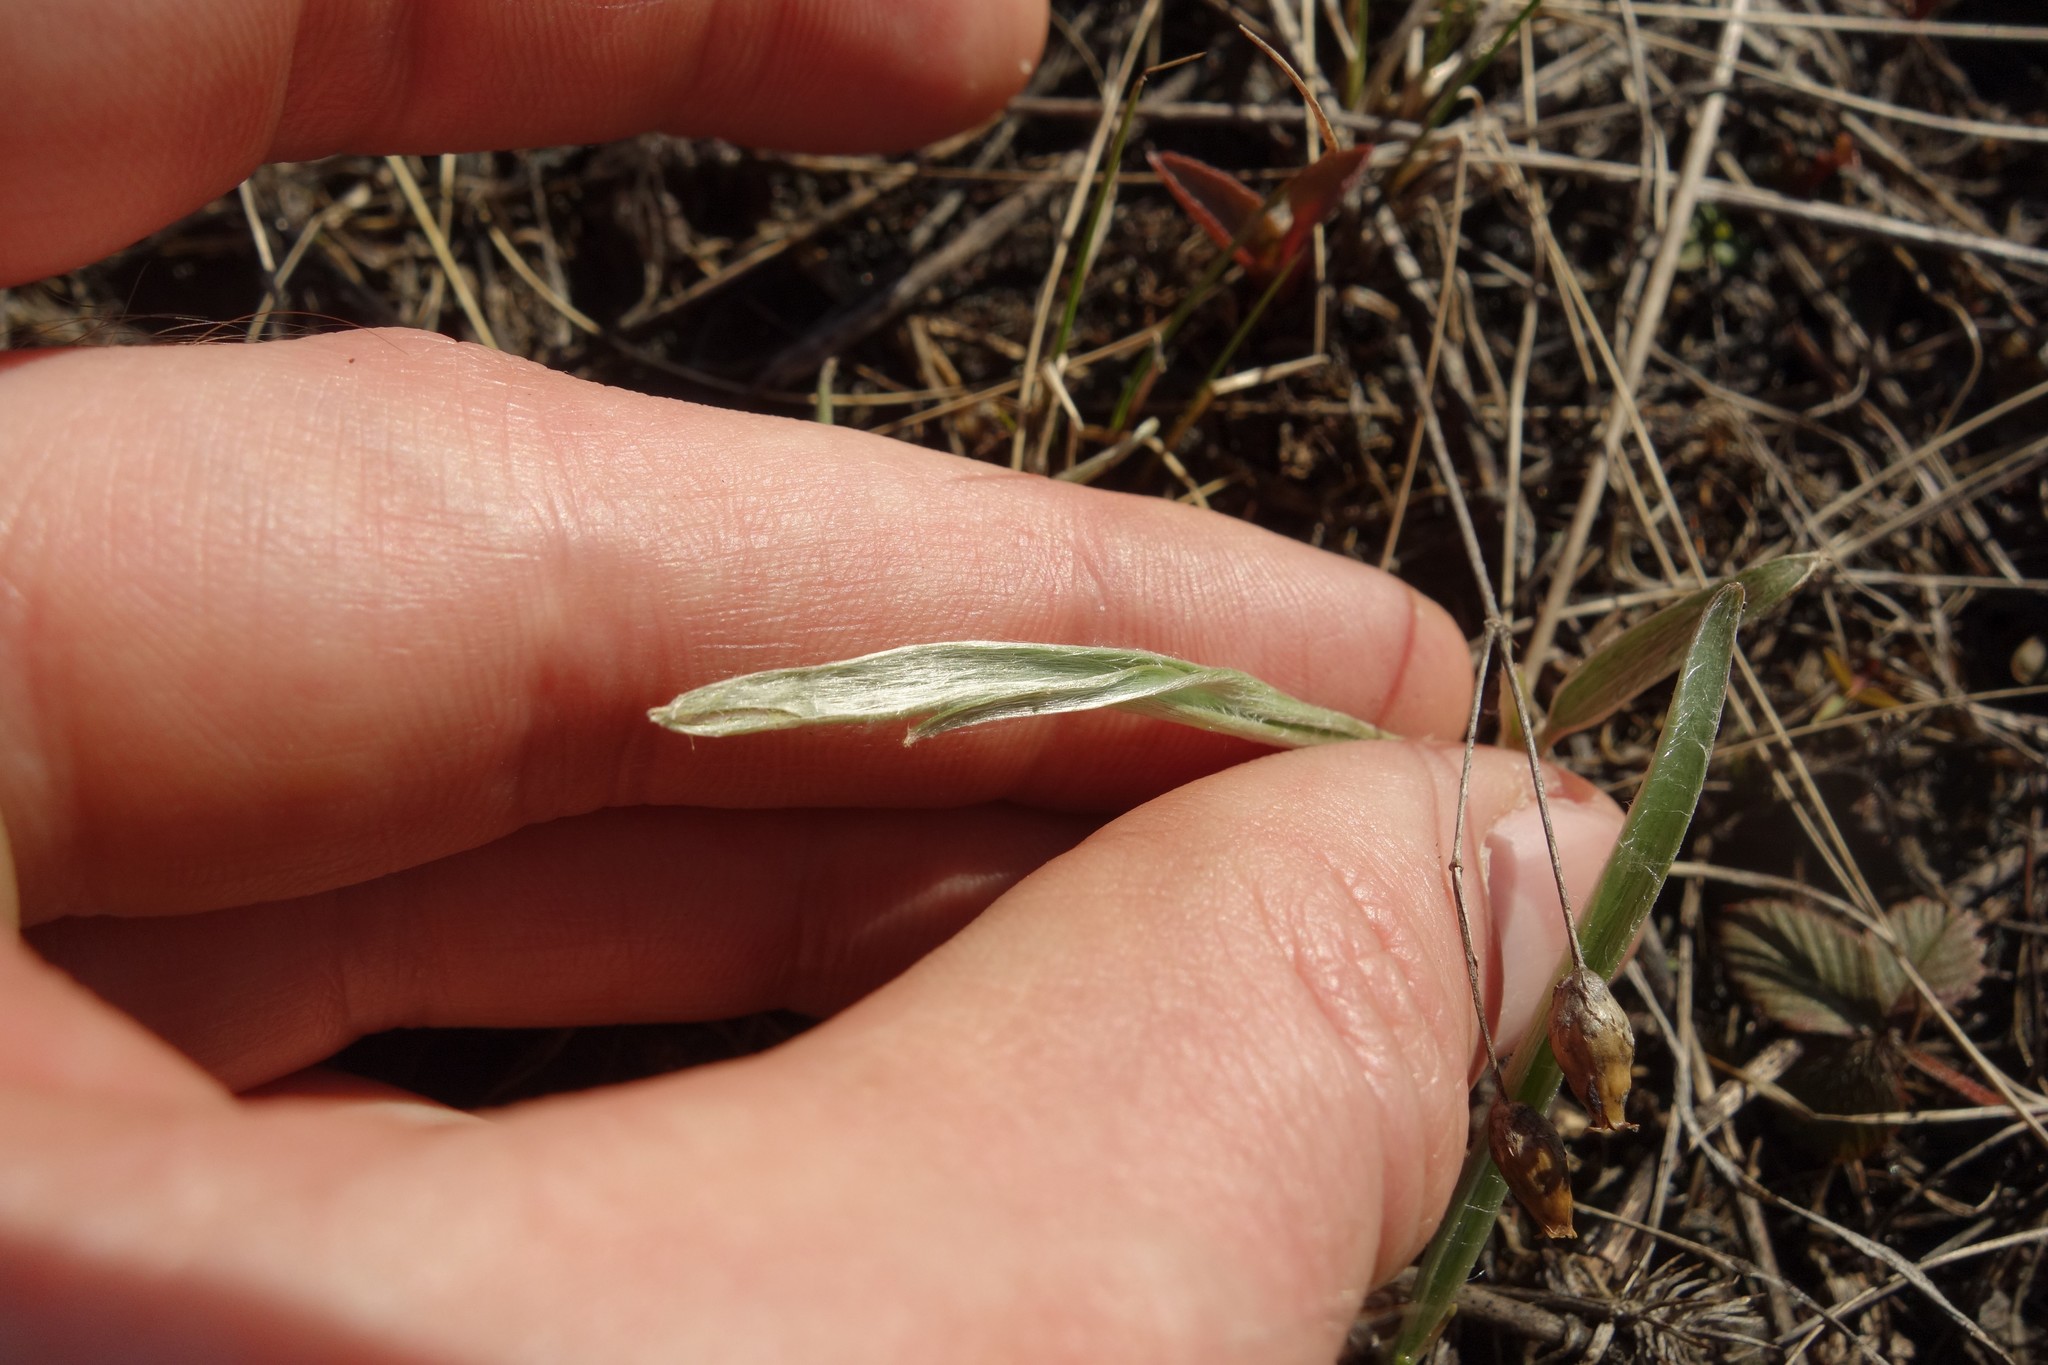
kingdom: Plantae
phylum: Tracheophyta
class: Magnoliopsida
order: Ranunculales
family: Ranunculaceae
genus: Ranunculus
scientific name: Ranunculus illyricus
